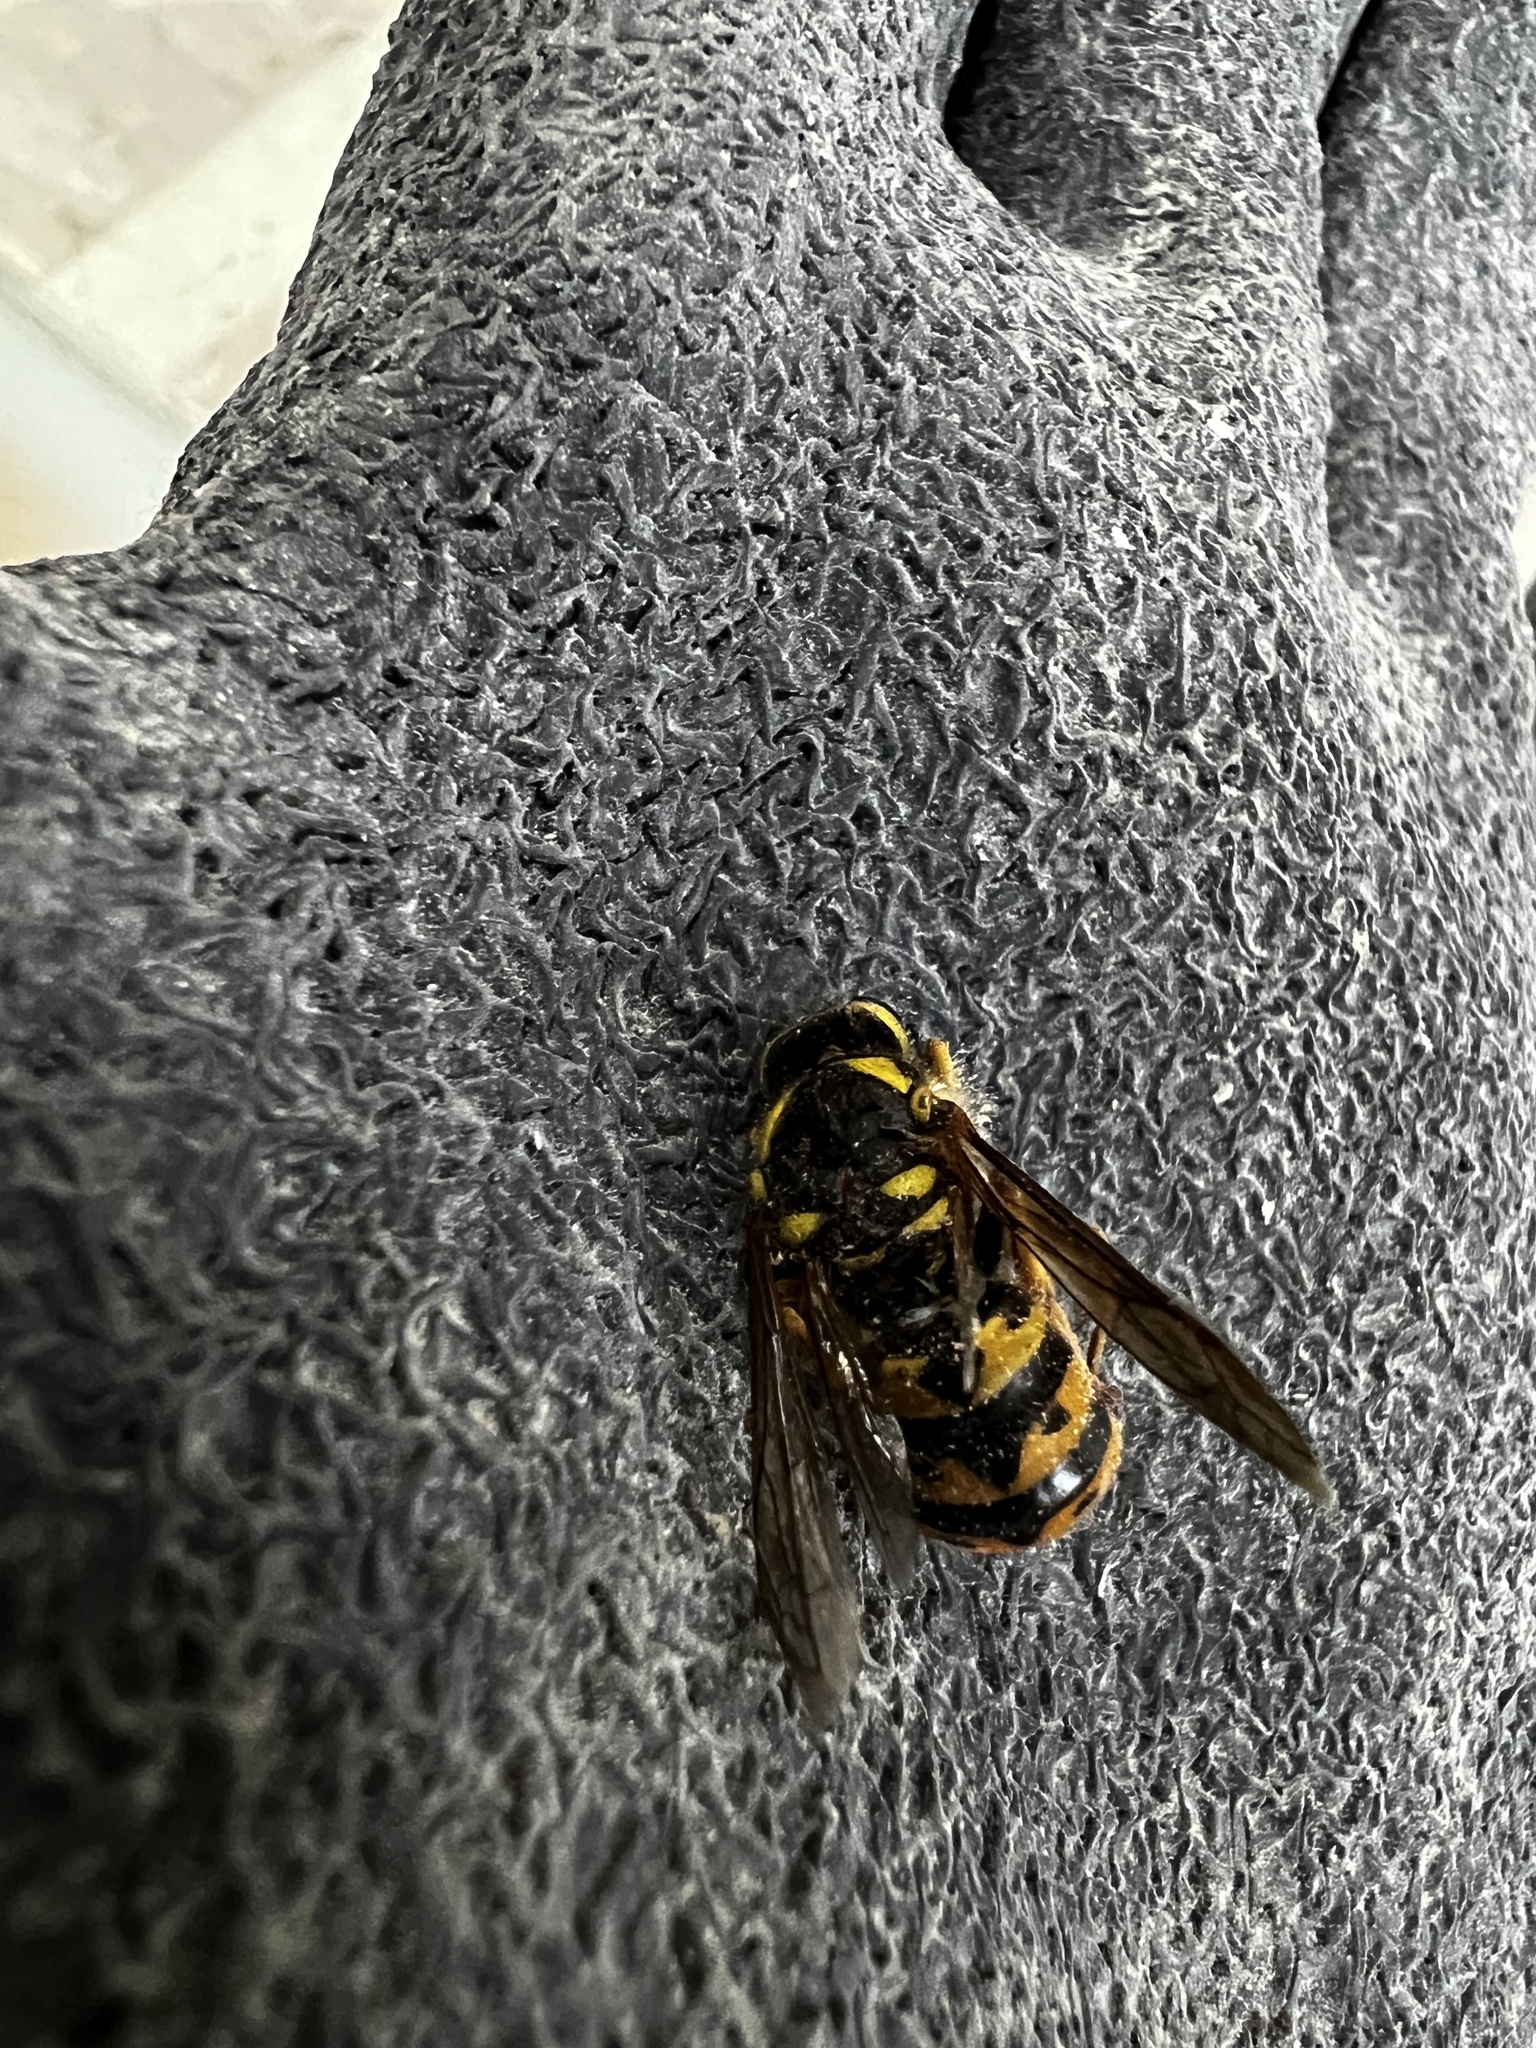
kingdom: Animalia
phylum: Arthropoda
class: Insecta
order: Hymenoptera
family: Vespidae
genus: Vespula
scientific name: Vespula pensylvanica
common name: Western yellowjacket
